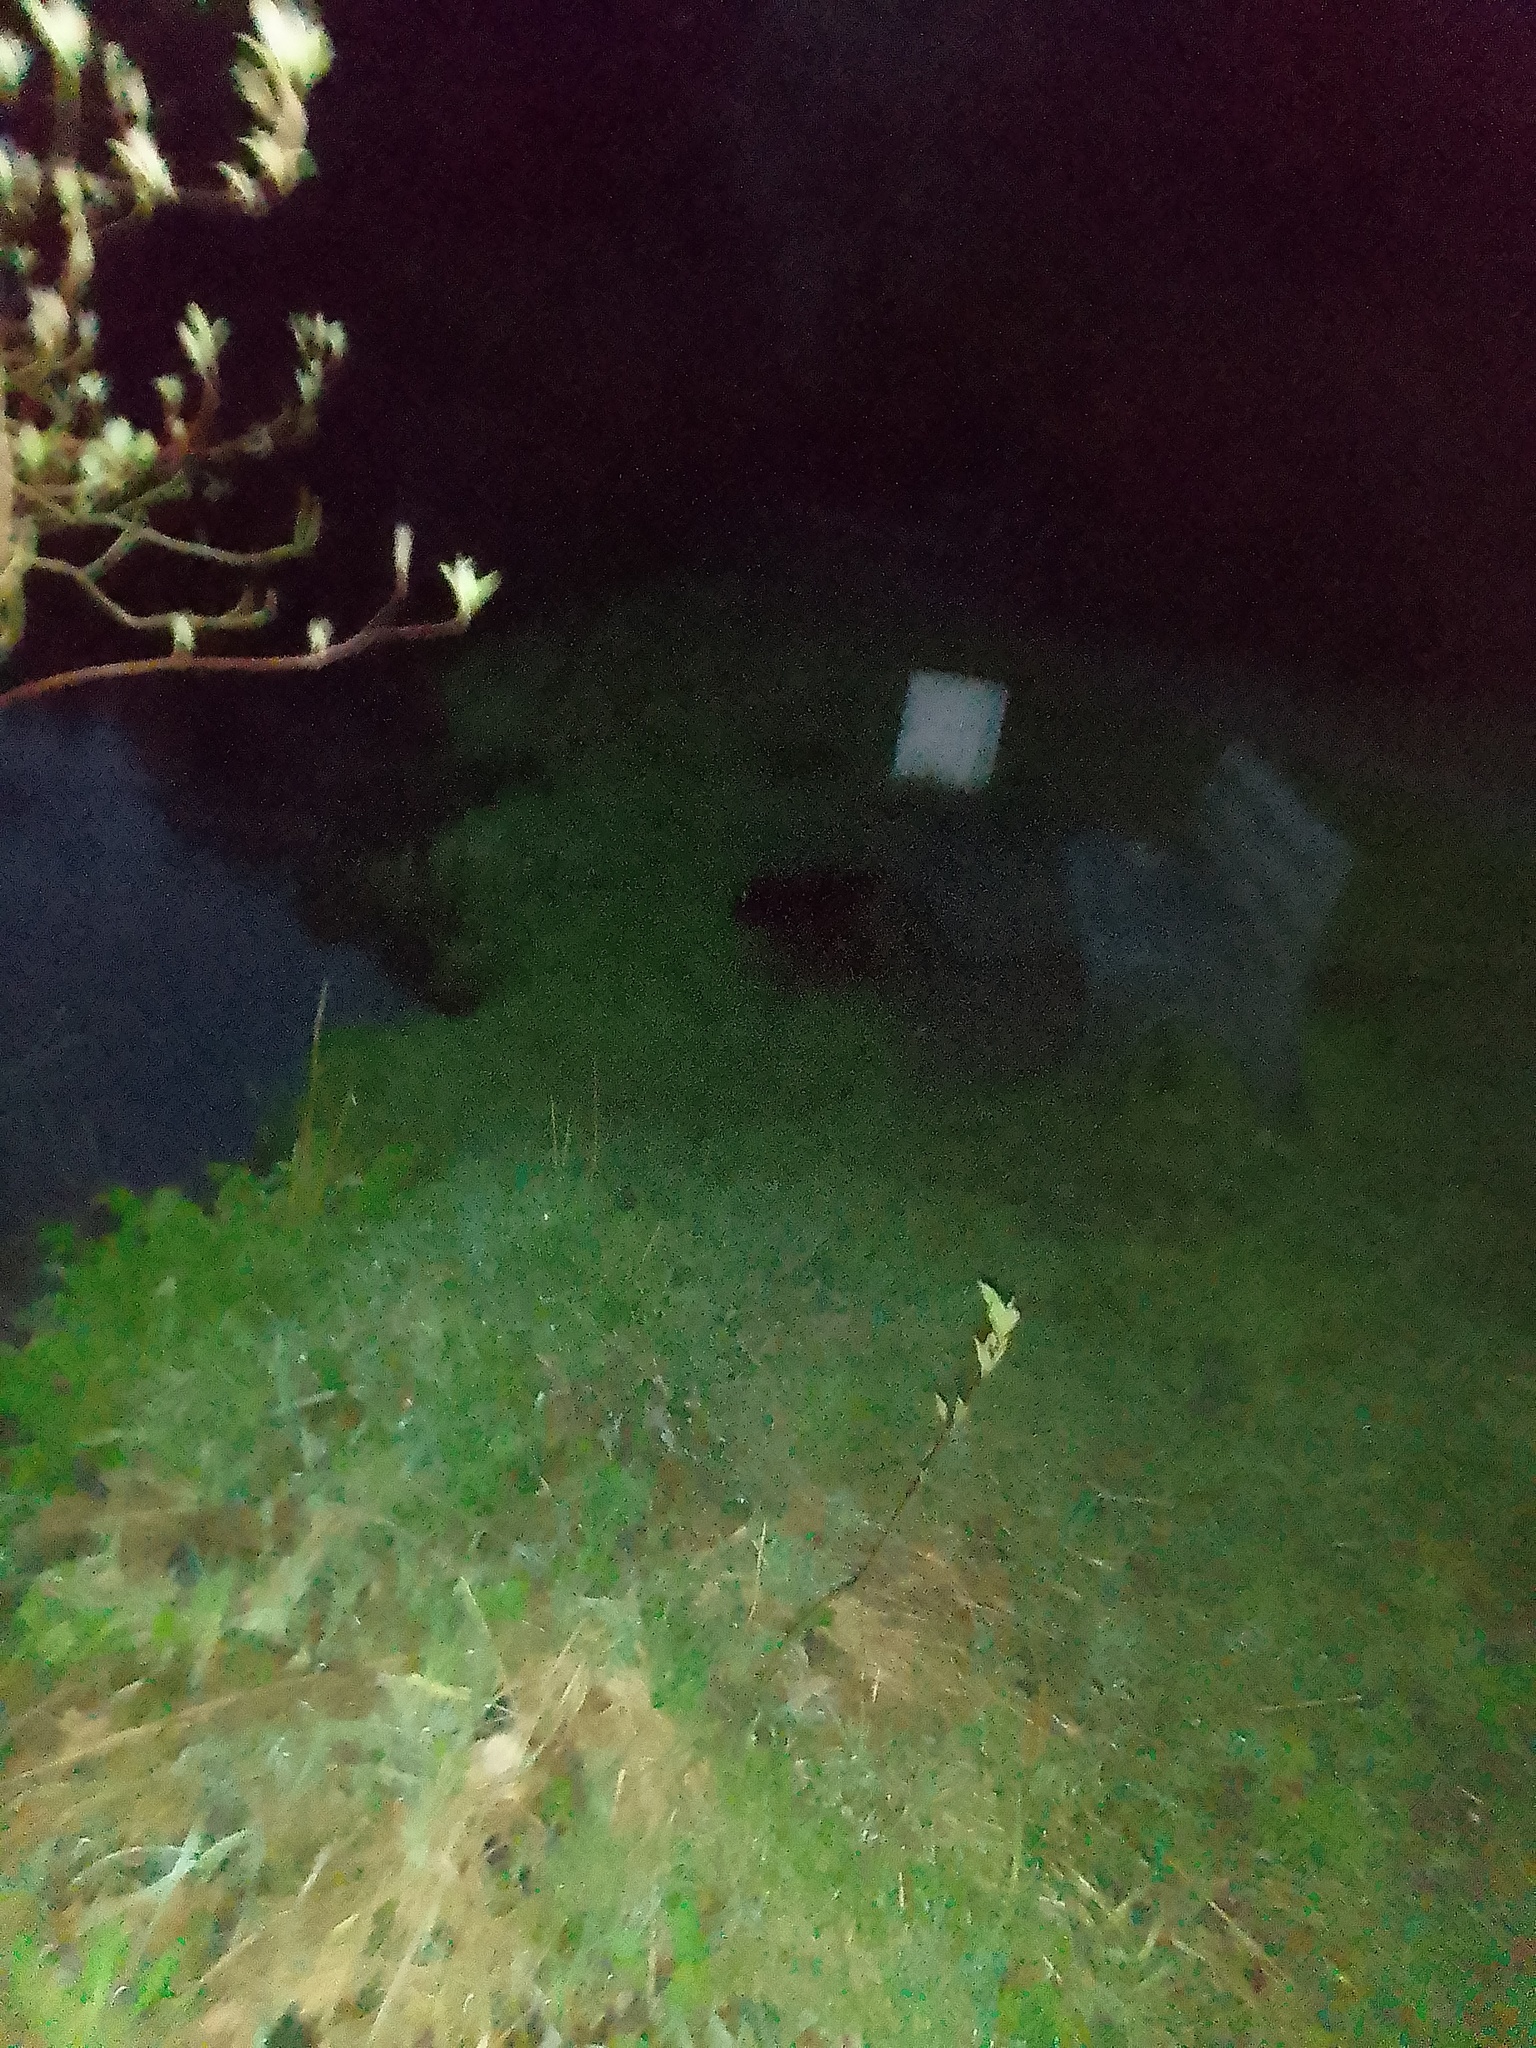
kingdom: Animalia
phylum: Chordata
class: Mammalia
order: Rodentia
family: Castoridae
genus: Castor
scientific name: Castor fiber
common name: Eurasian beaver
